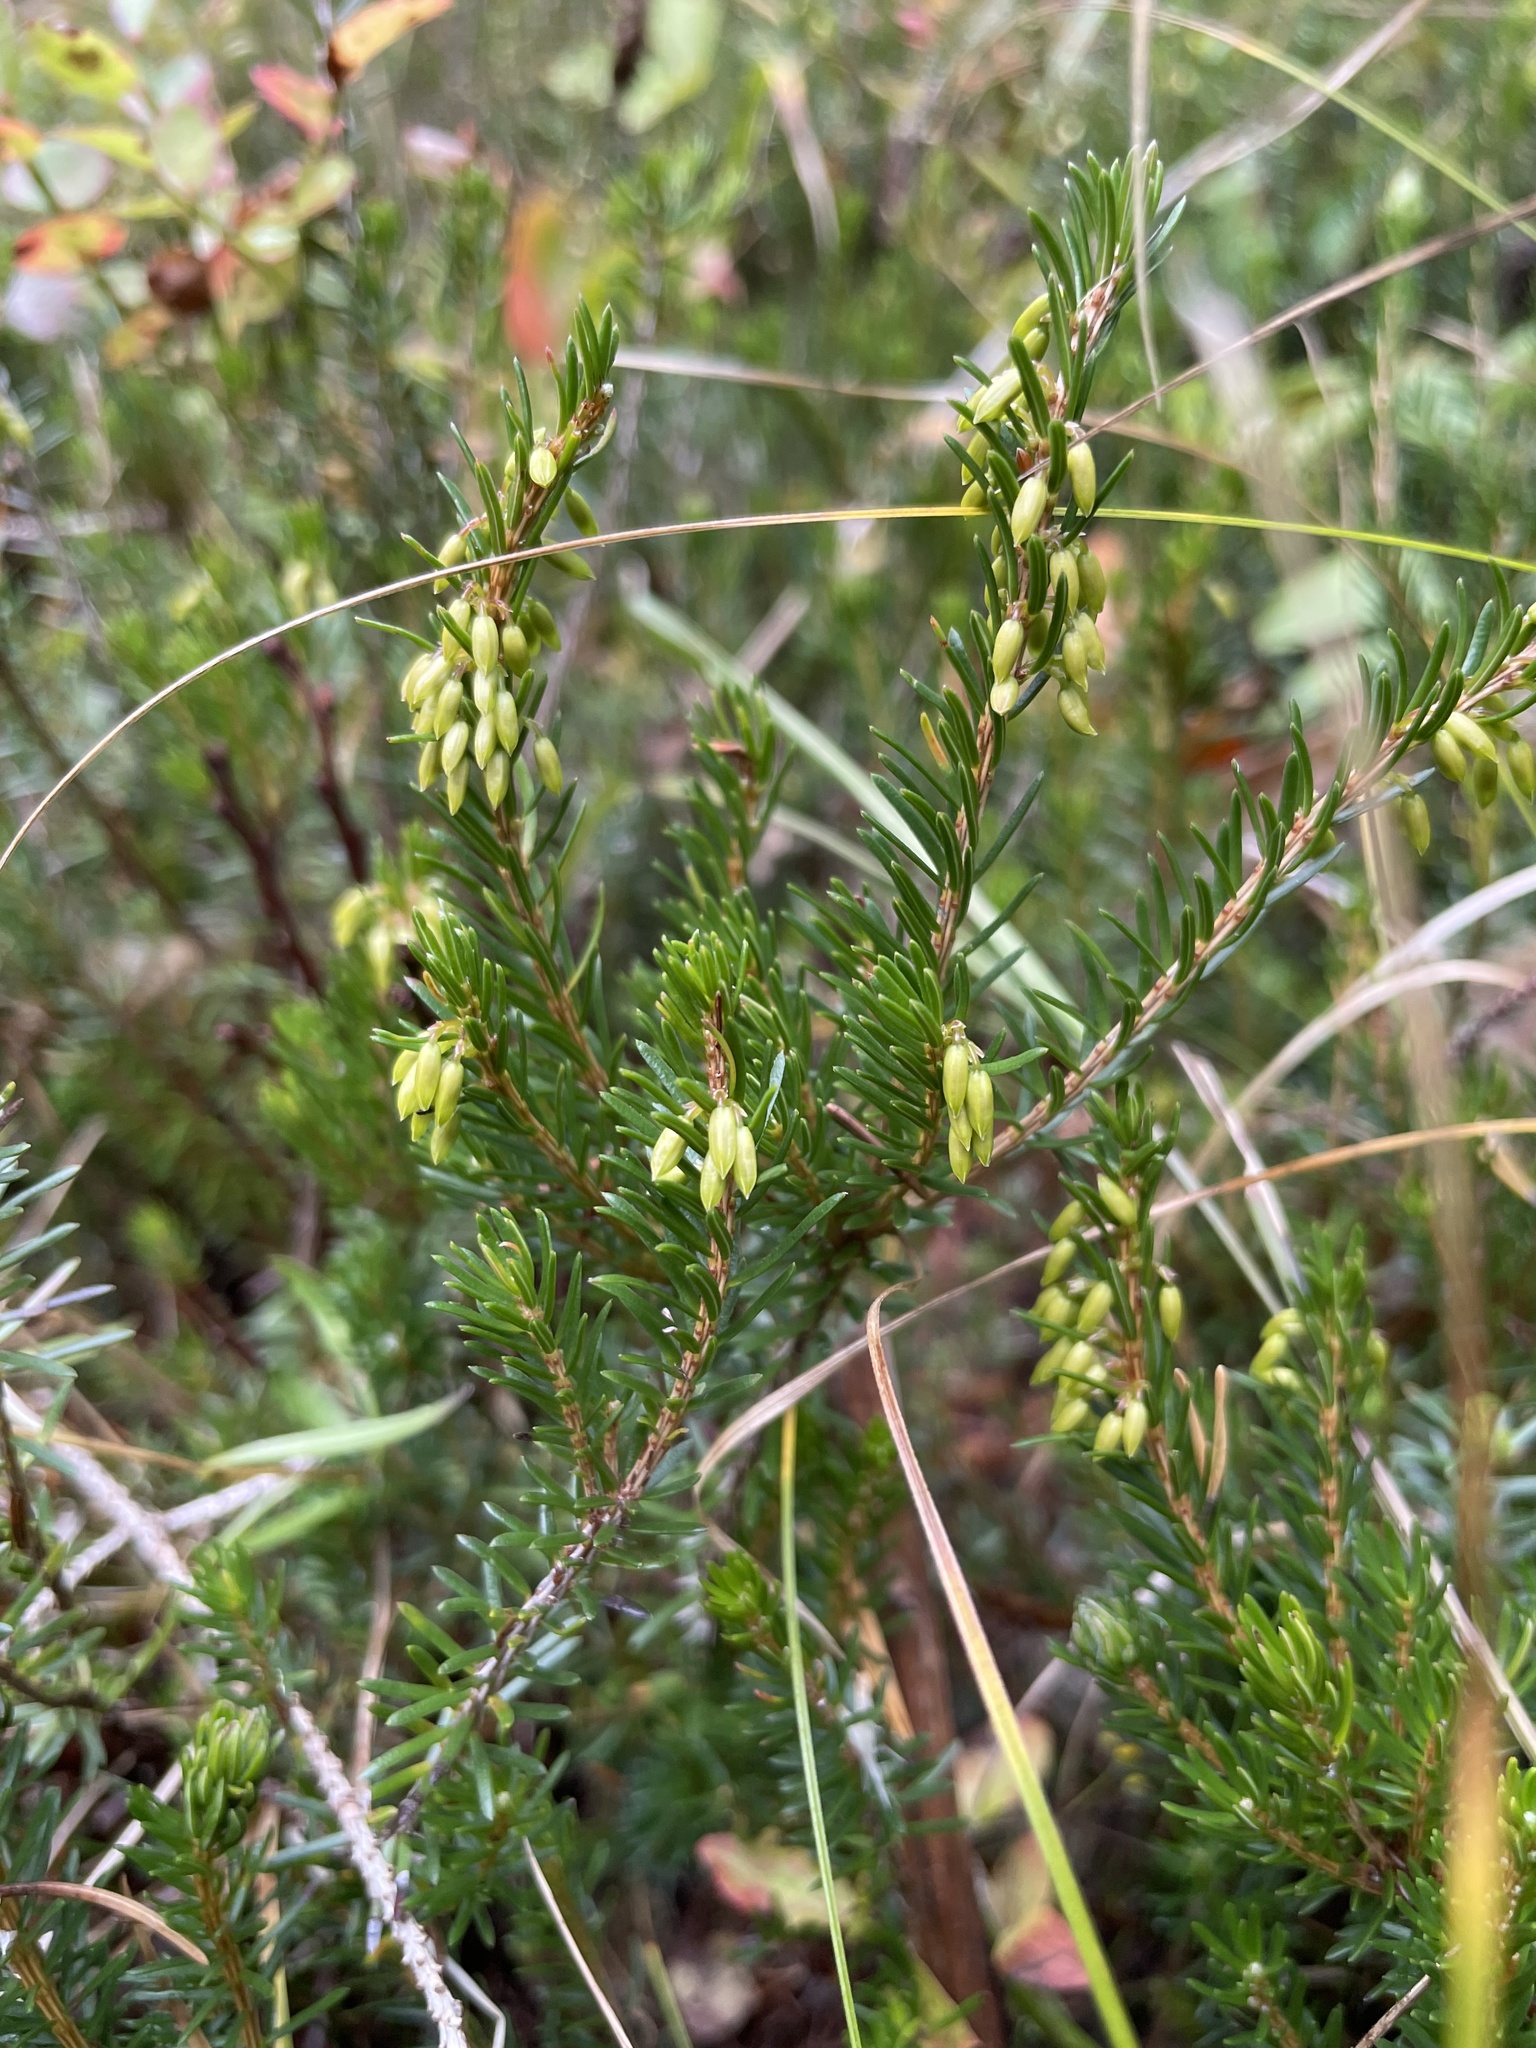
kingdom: Plantae
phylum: Tracheophyta
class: Magnoliopsida
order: Ericales
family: Ericaceae
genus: Erica
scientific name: Erica carnea
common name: Winter heath
